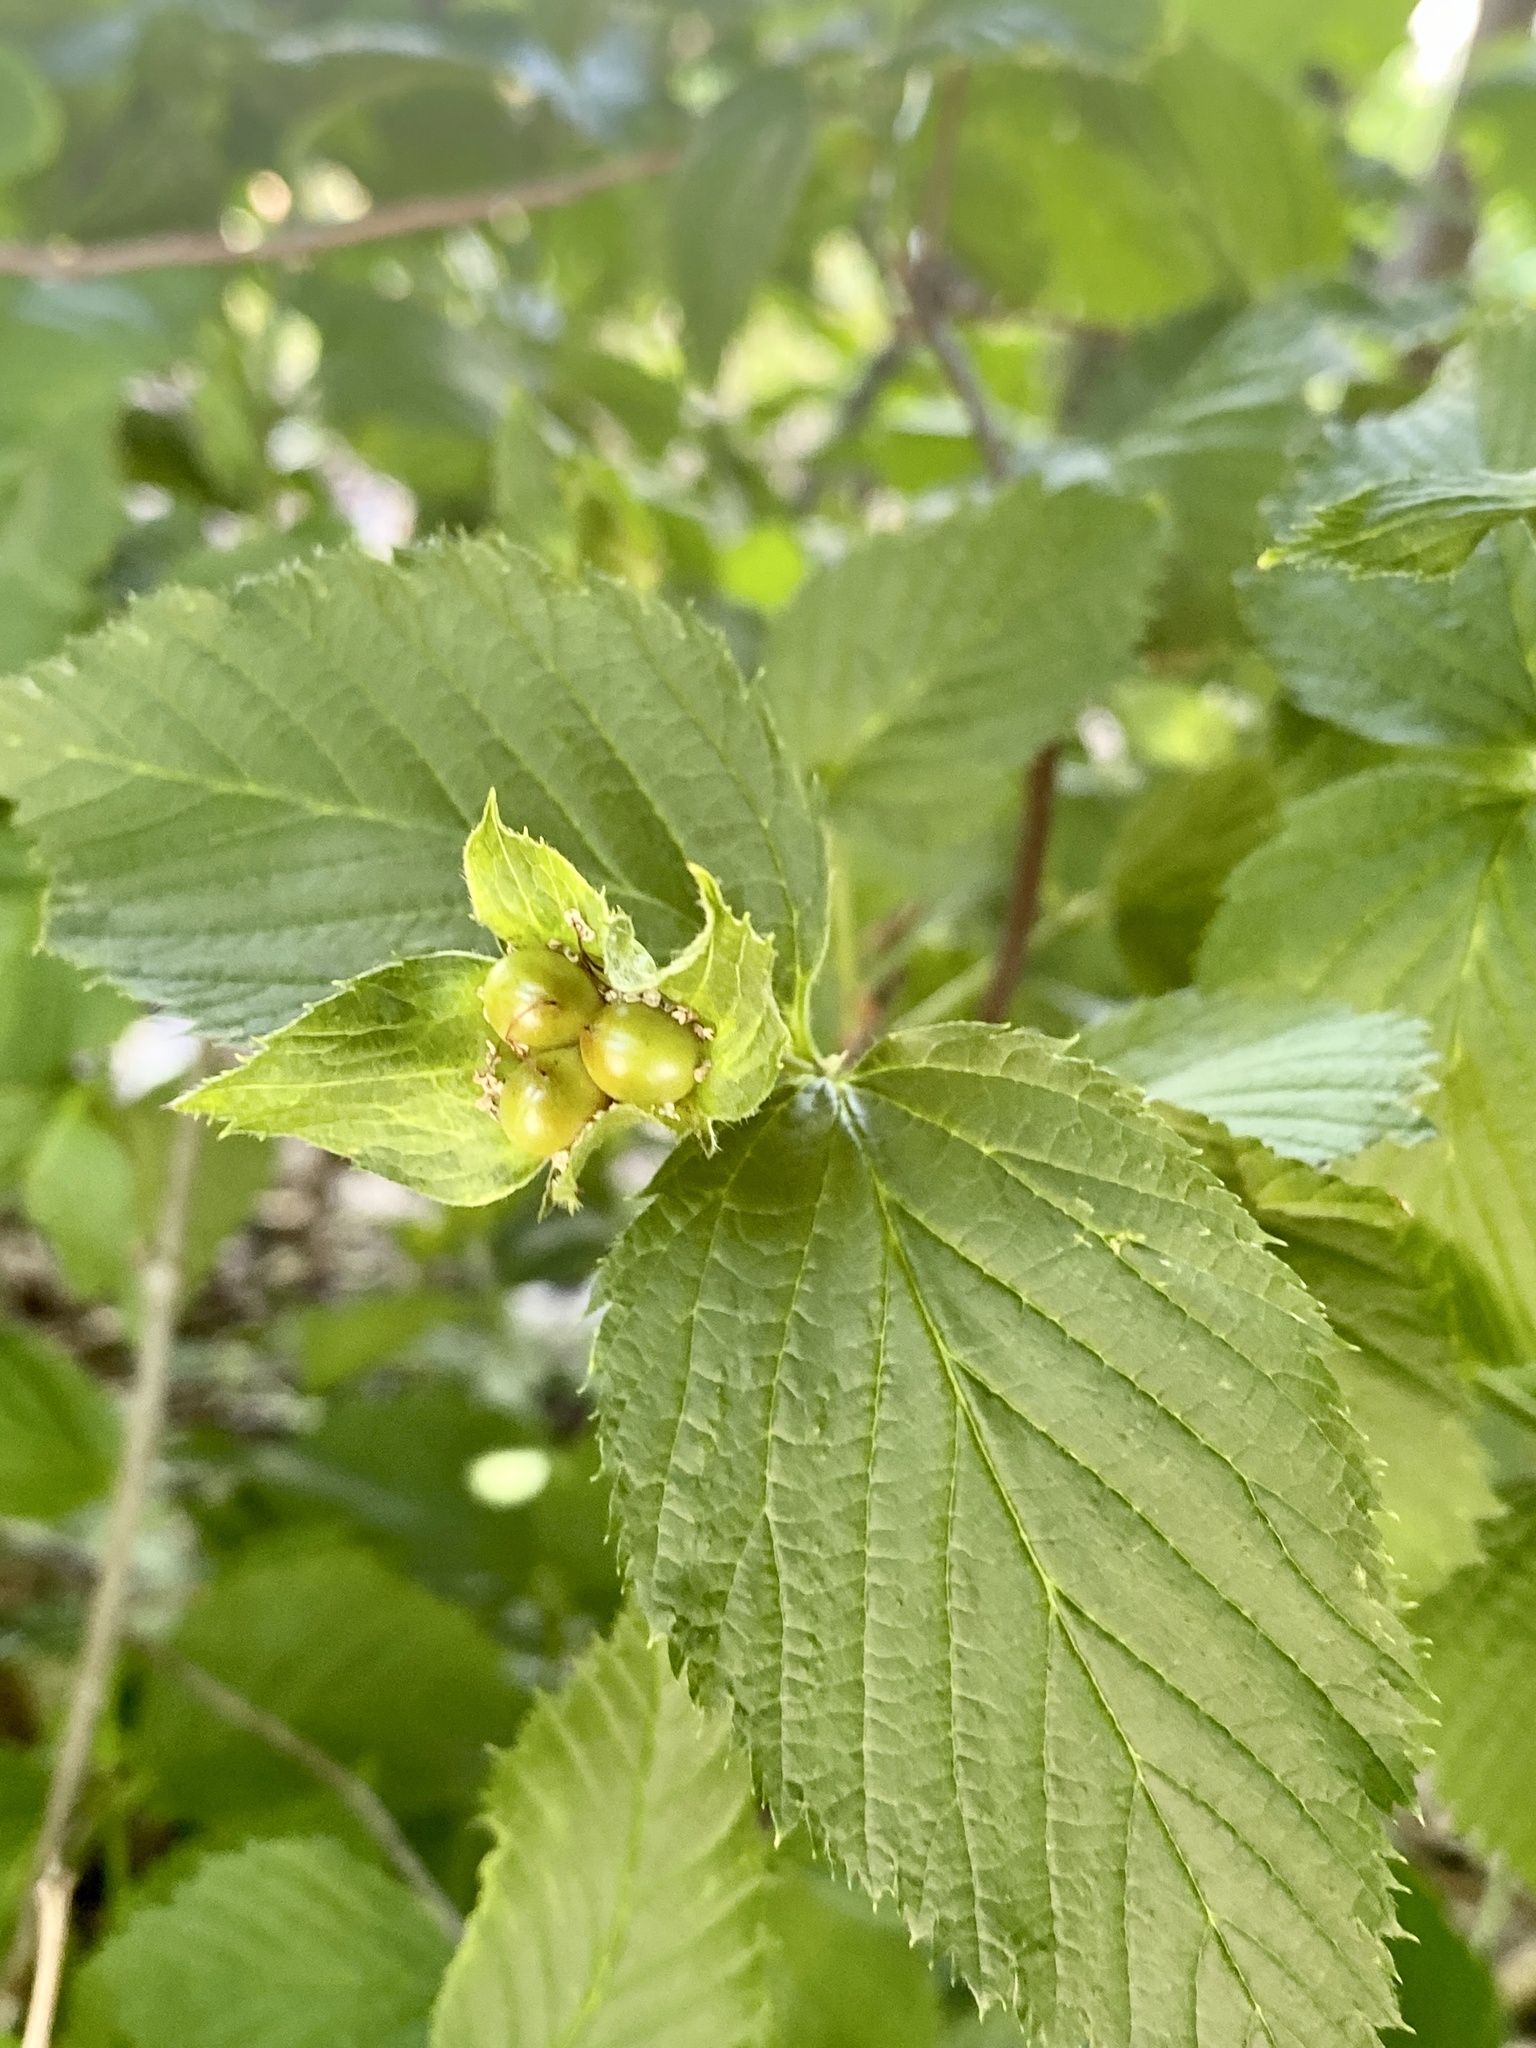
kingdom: Plantae
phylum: Tracheophyta
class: Magnoliopsida
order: Rosales
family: Rosaceae
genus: Rhodotypos
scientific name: Rhodotypos scandens
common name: Jetbead
